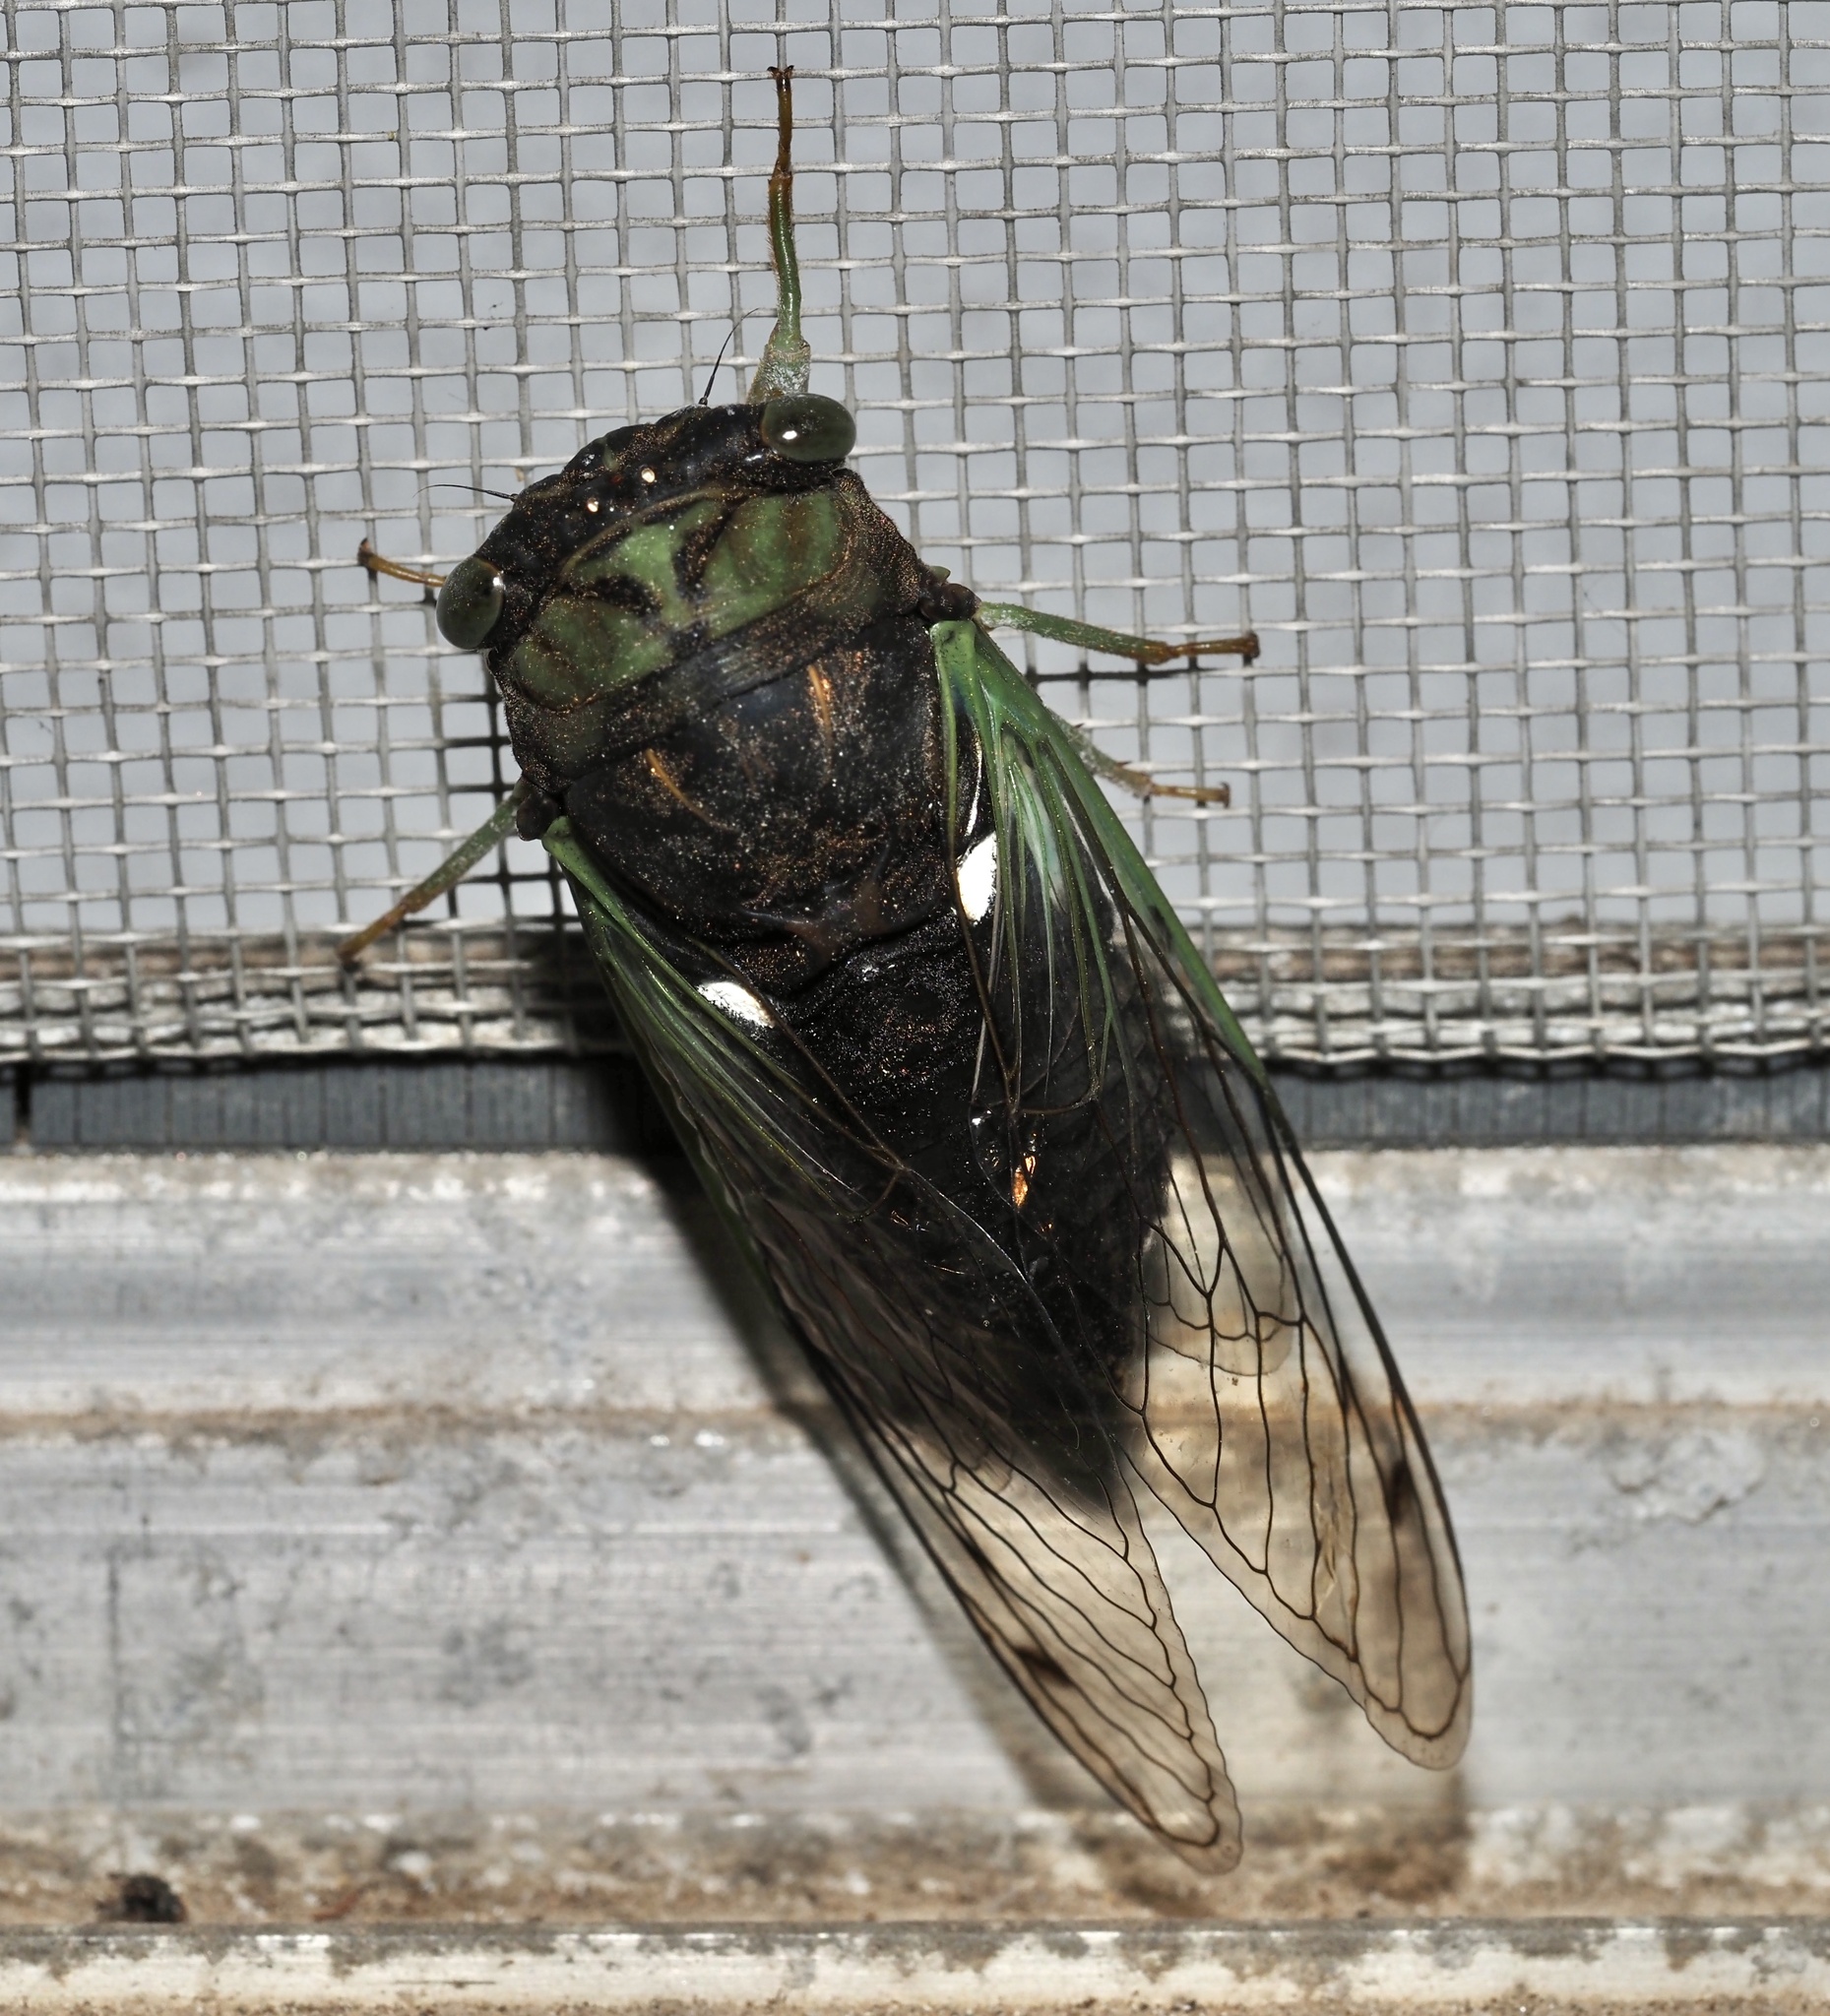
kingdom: Animalia
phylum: Arthropoda
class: Insecta
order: Hemiptera
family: Cicadidae
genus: Neotibicen
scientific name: Neotibicen tibicen
